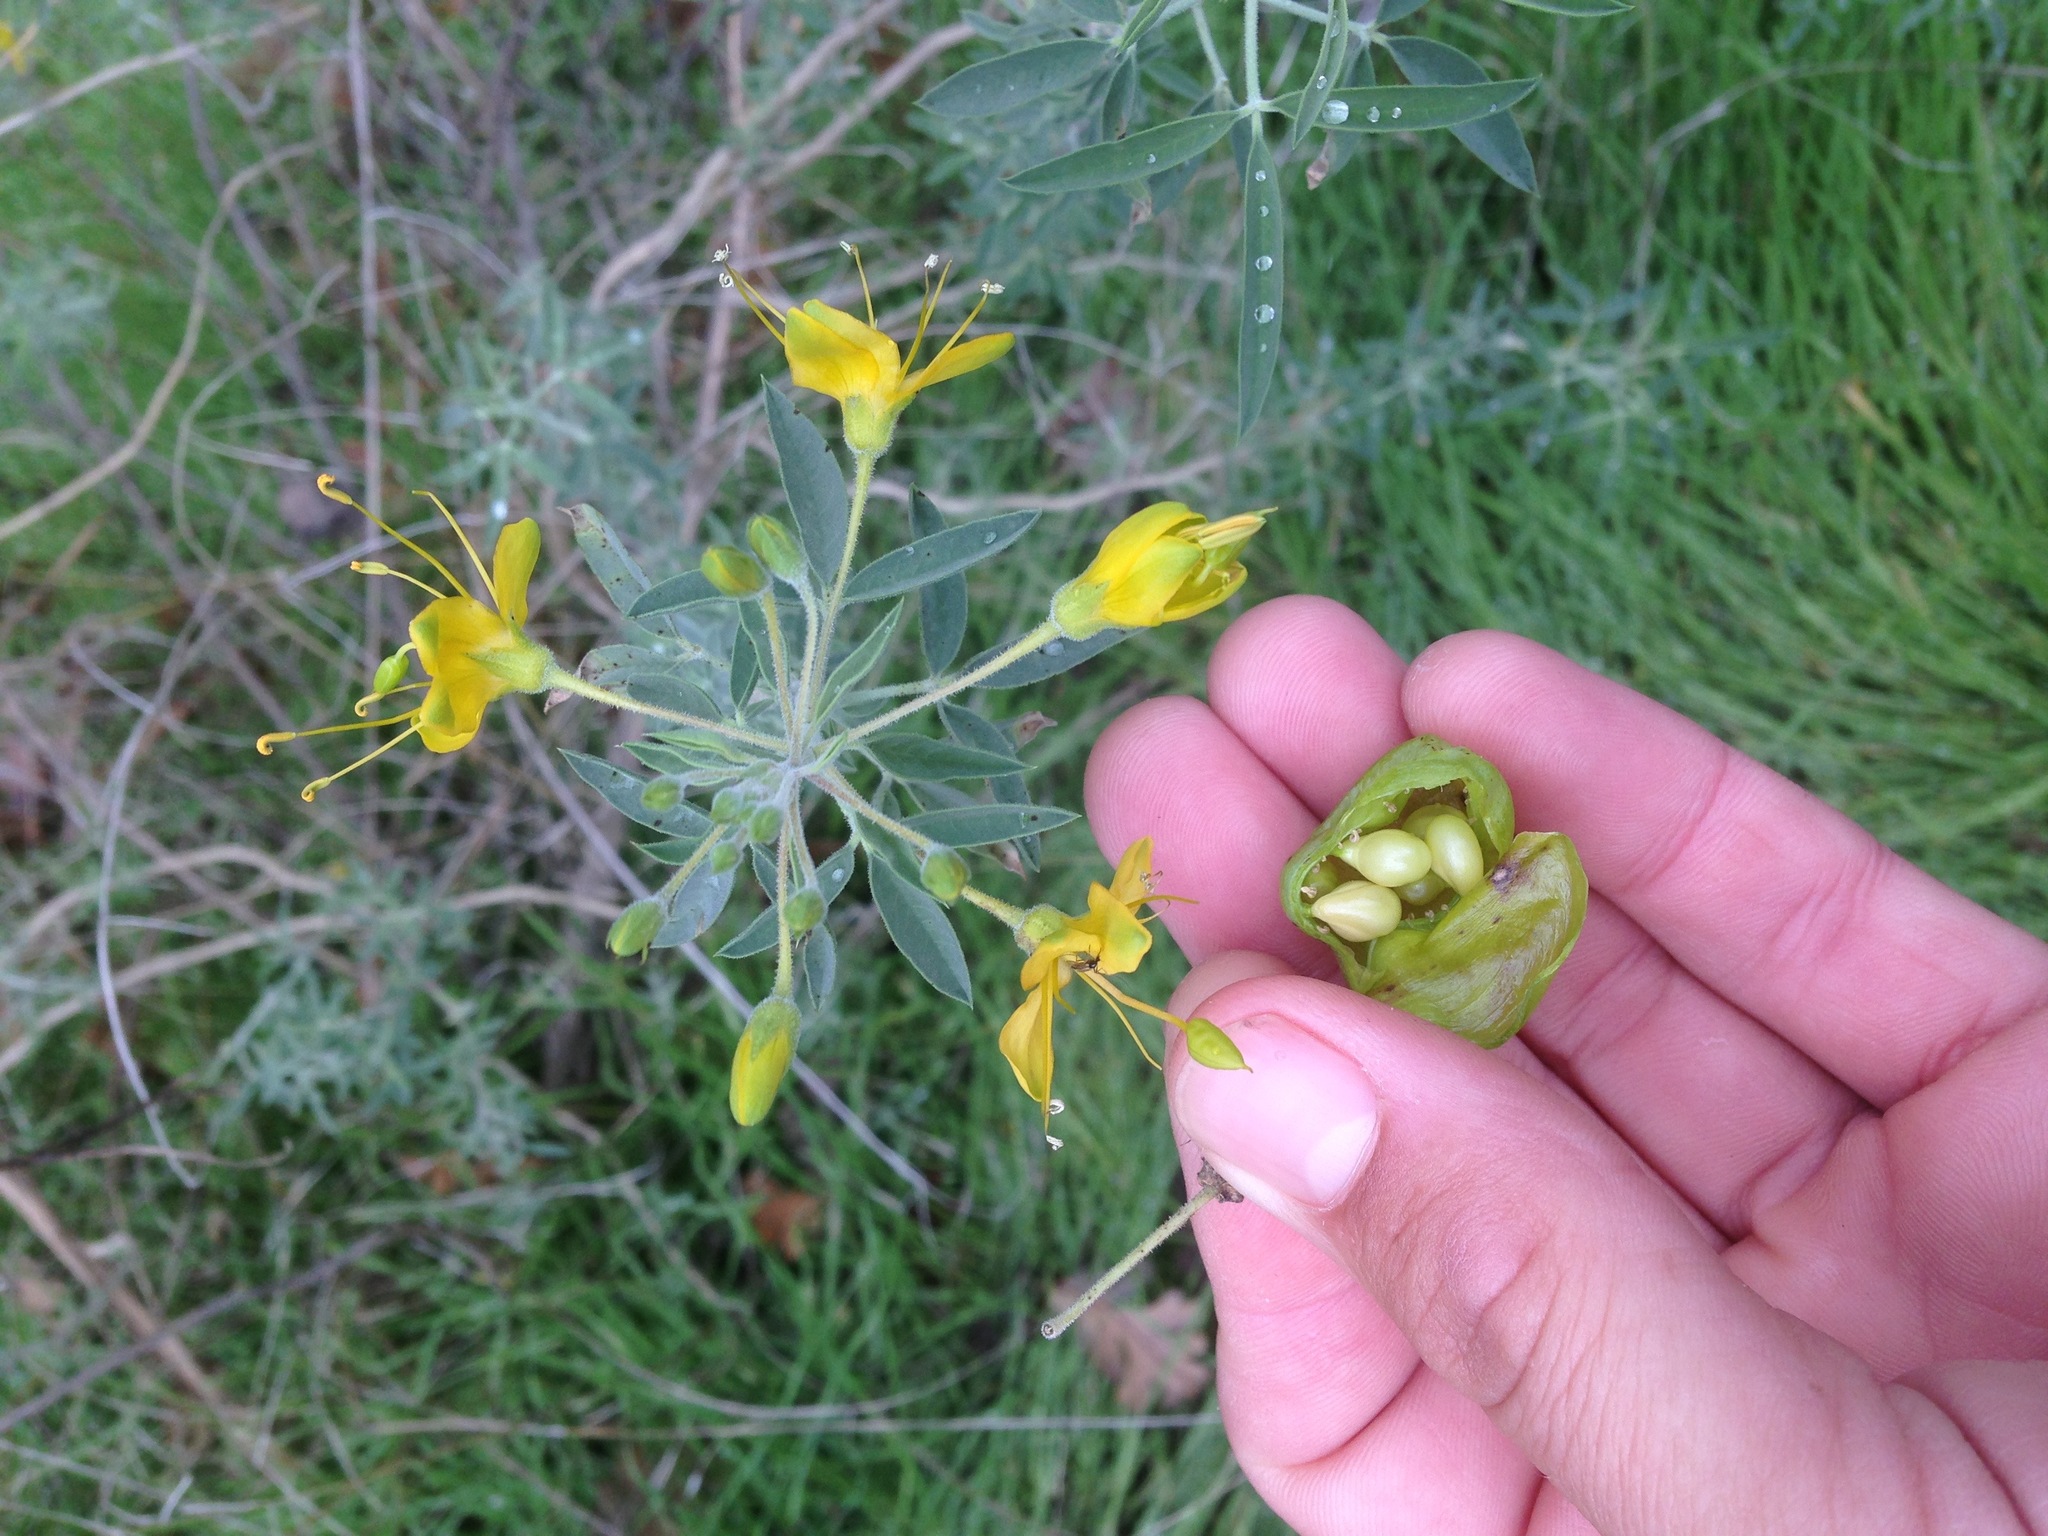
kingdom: Plantae
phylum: Tracheophyta
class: Magnoliopsida
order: Brassicales
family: Cleomaceae
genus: Cleomella
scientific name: Cleomella arborea
